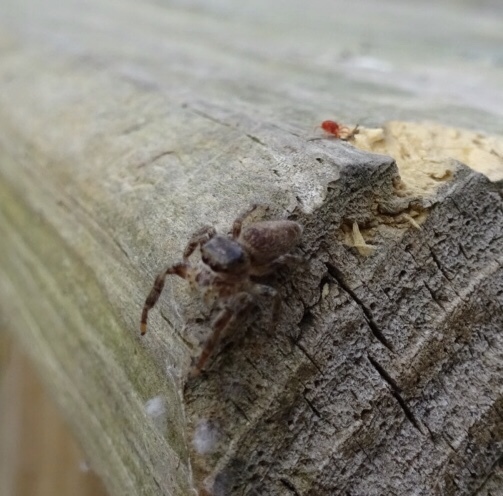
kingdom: Animalia
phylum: Arthropoda
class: Arachnida
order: Araneae
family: Salticidae
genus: Eris
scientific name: Eris militaris
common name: Bronze jumper
